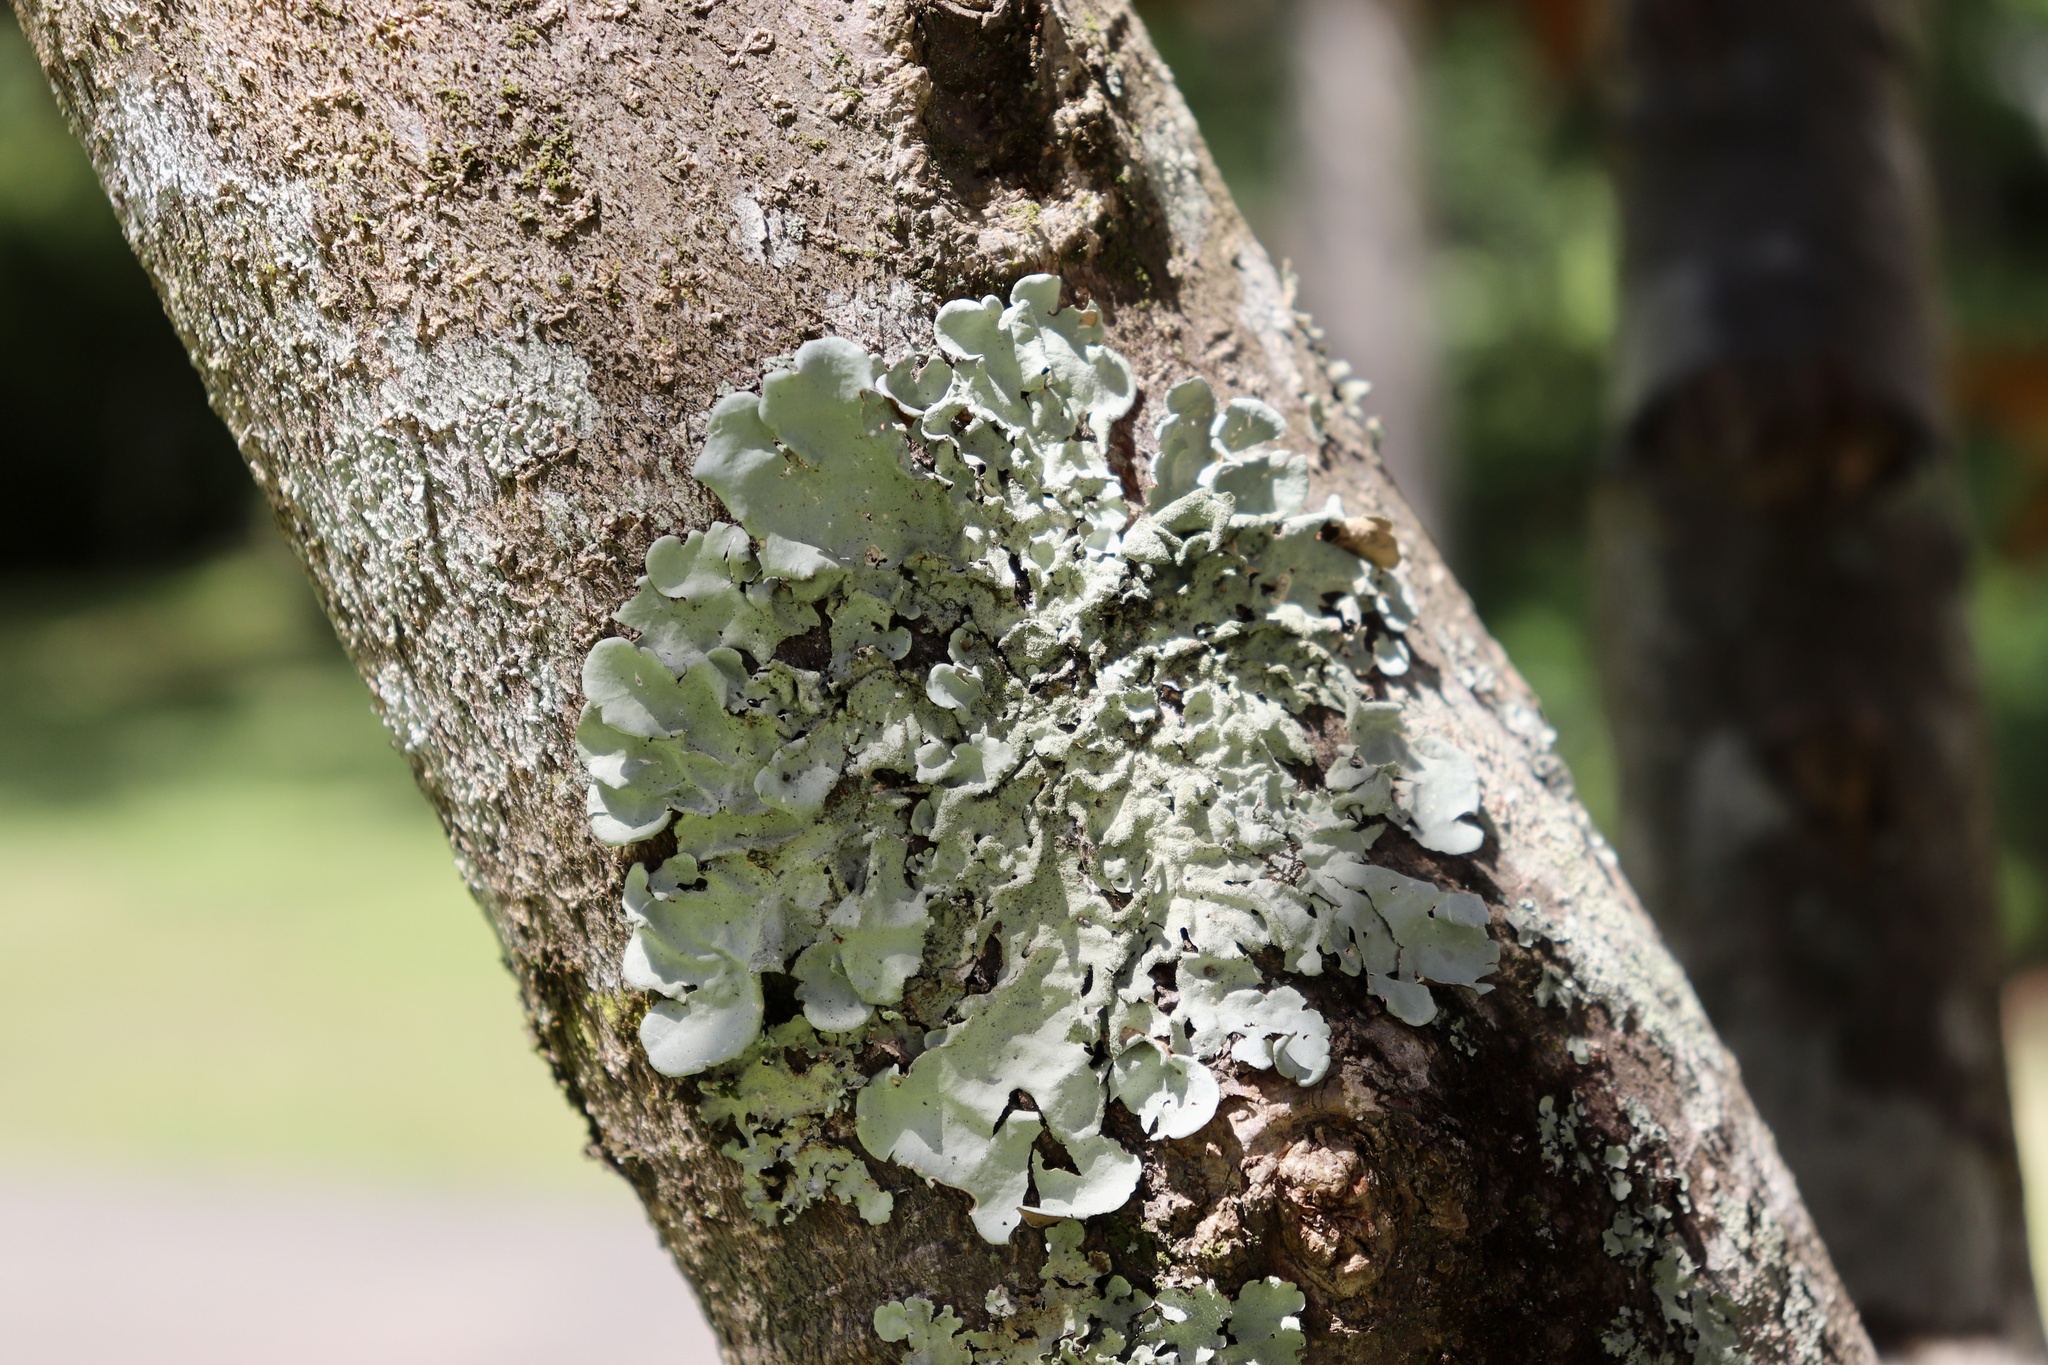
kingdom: Fungi
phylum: Ascomycota
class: Lecanoromycetes
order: Lecanorales
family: Parmeliaceae
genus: Flavoparmelia
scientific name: Flavoparmelia caperata
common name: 40-mile per hour lichen
